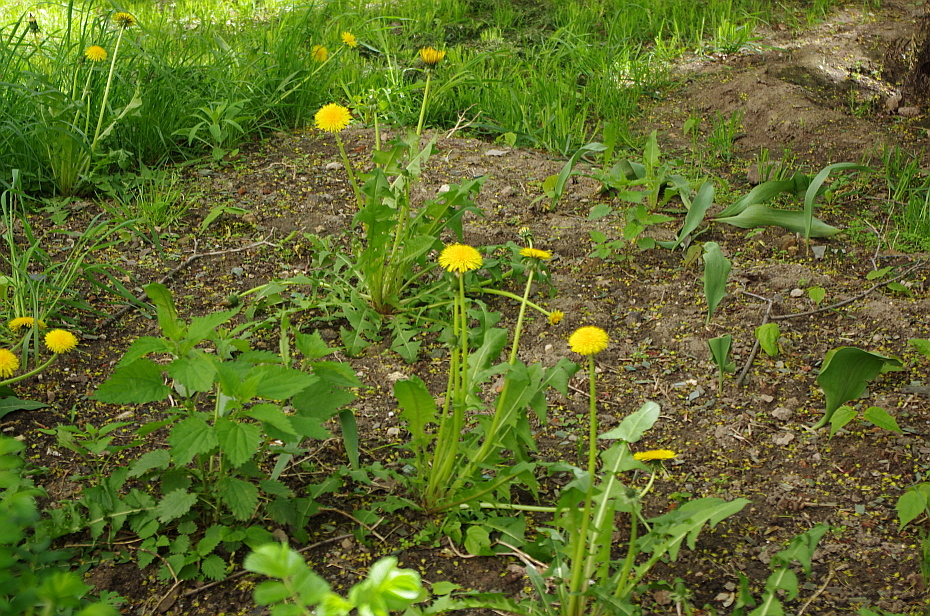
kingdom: Plantae
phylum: Tracheophyta
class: Magnoliopsida
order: Asterales
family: Asteraceae
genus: Taraxacum
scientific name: Taraxacum officinale
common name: Common dandelion
